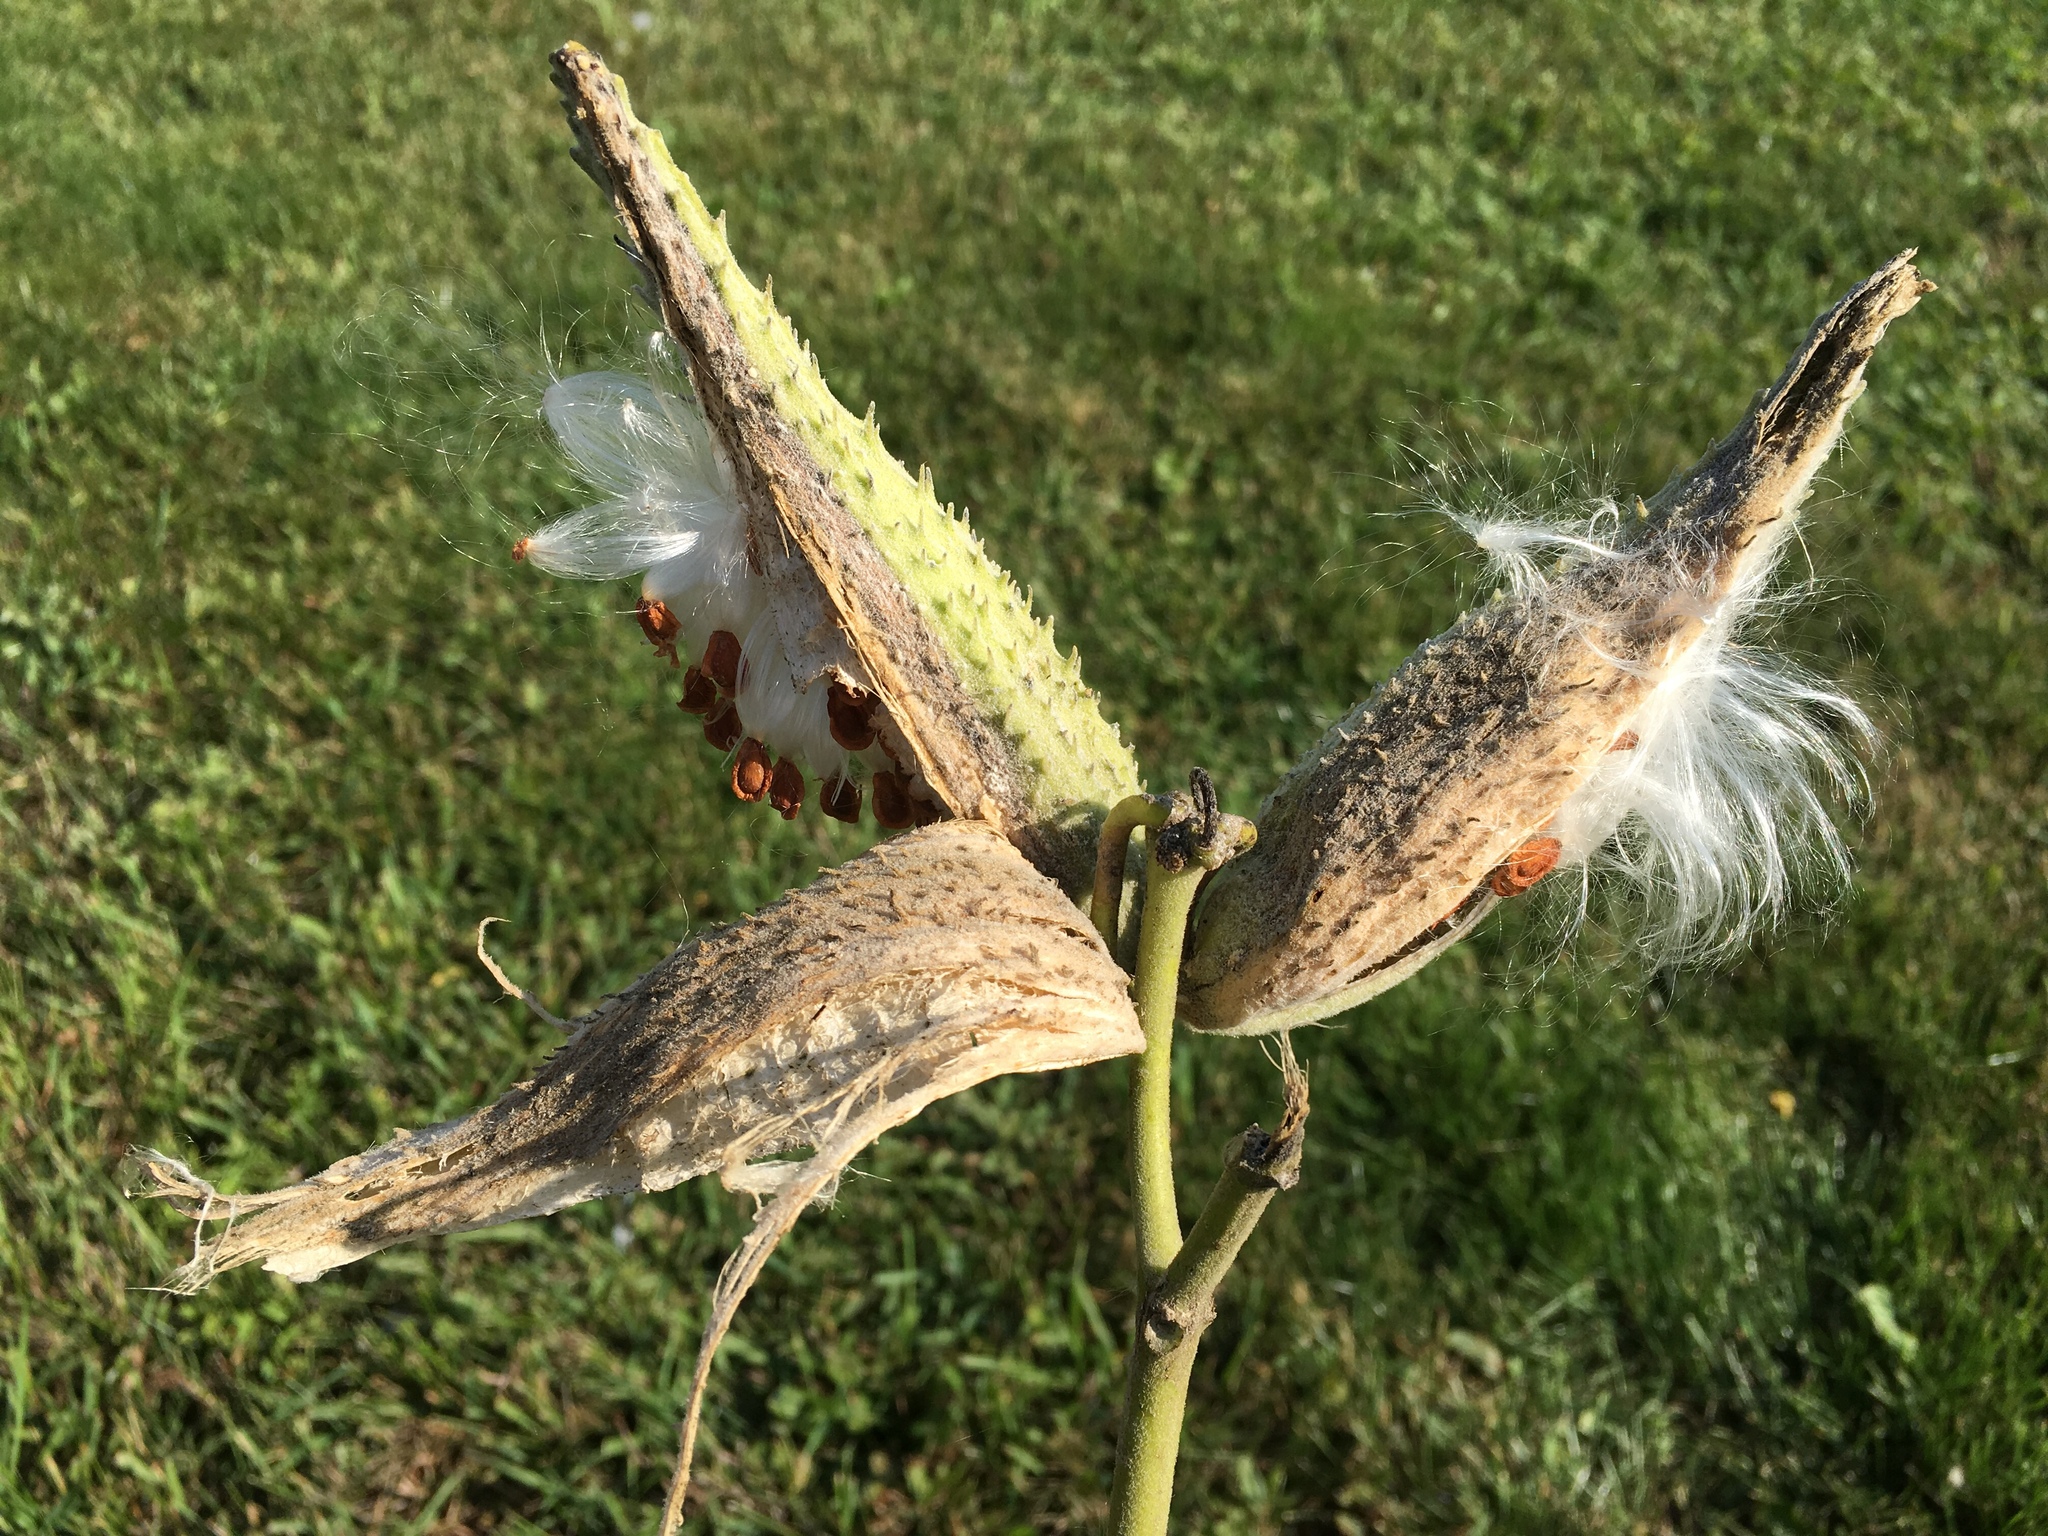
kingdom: Plantae
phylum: Tracheophyta
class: Magnoliopsida
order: Gentianales
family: Apocynaceae
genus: Asclepias
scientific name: Asclepias syriaca
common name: Common milkweed
